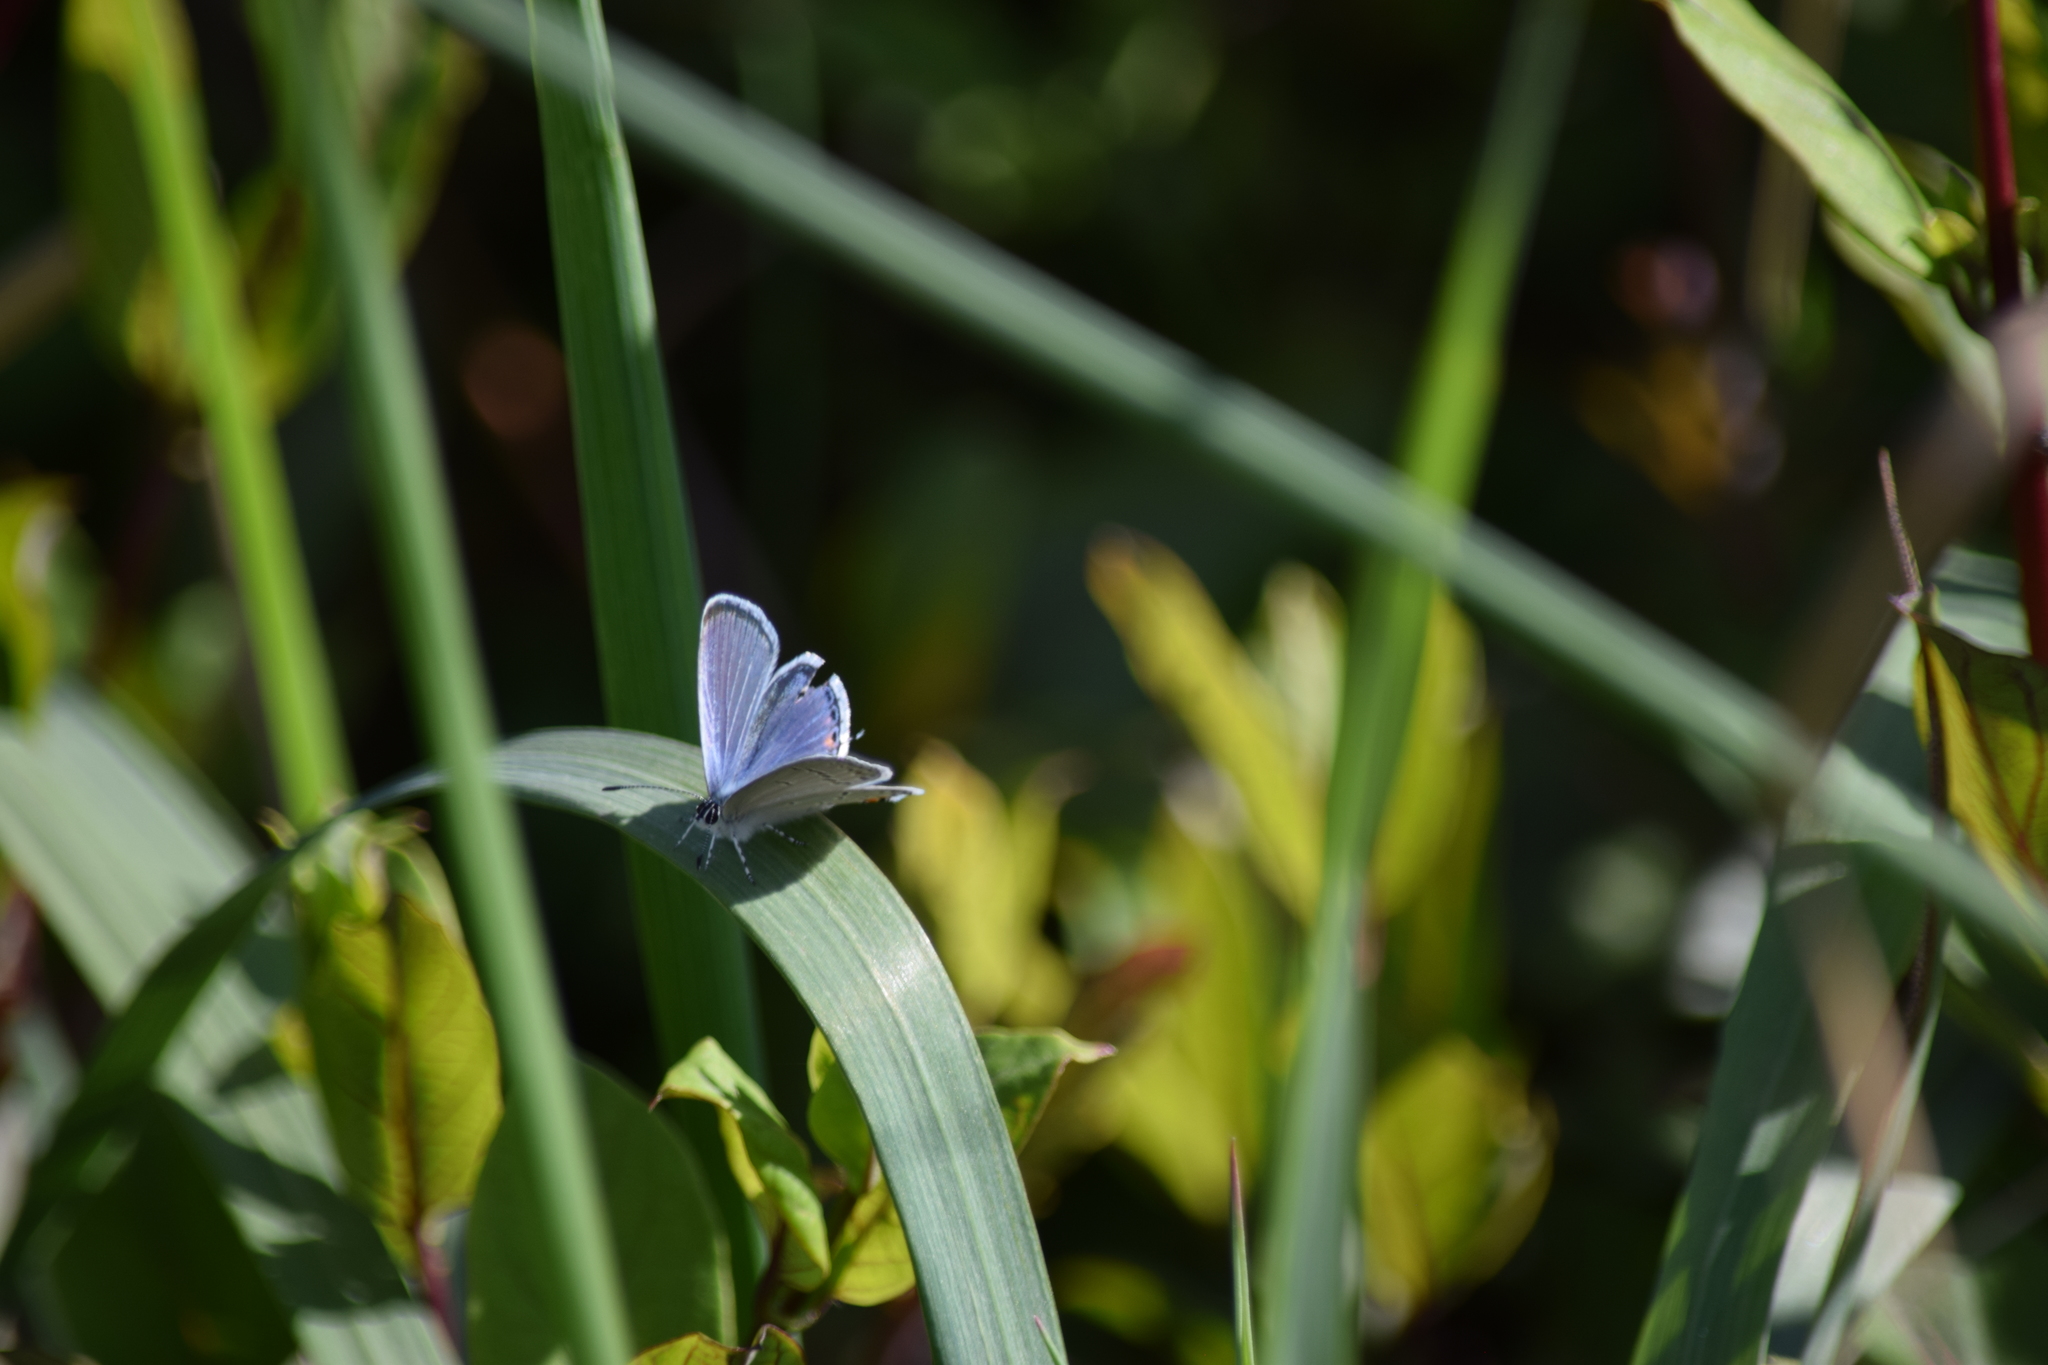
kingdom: Animalia
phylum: Arthropoda
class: Insecta
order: Lepidoptera
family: Lycaenidae
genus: Elkalyce
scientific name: Elkalyce comyntas
